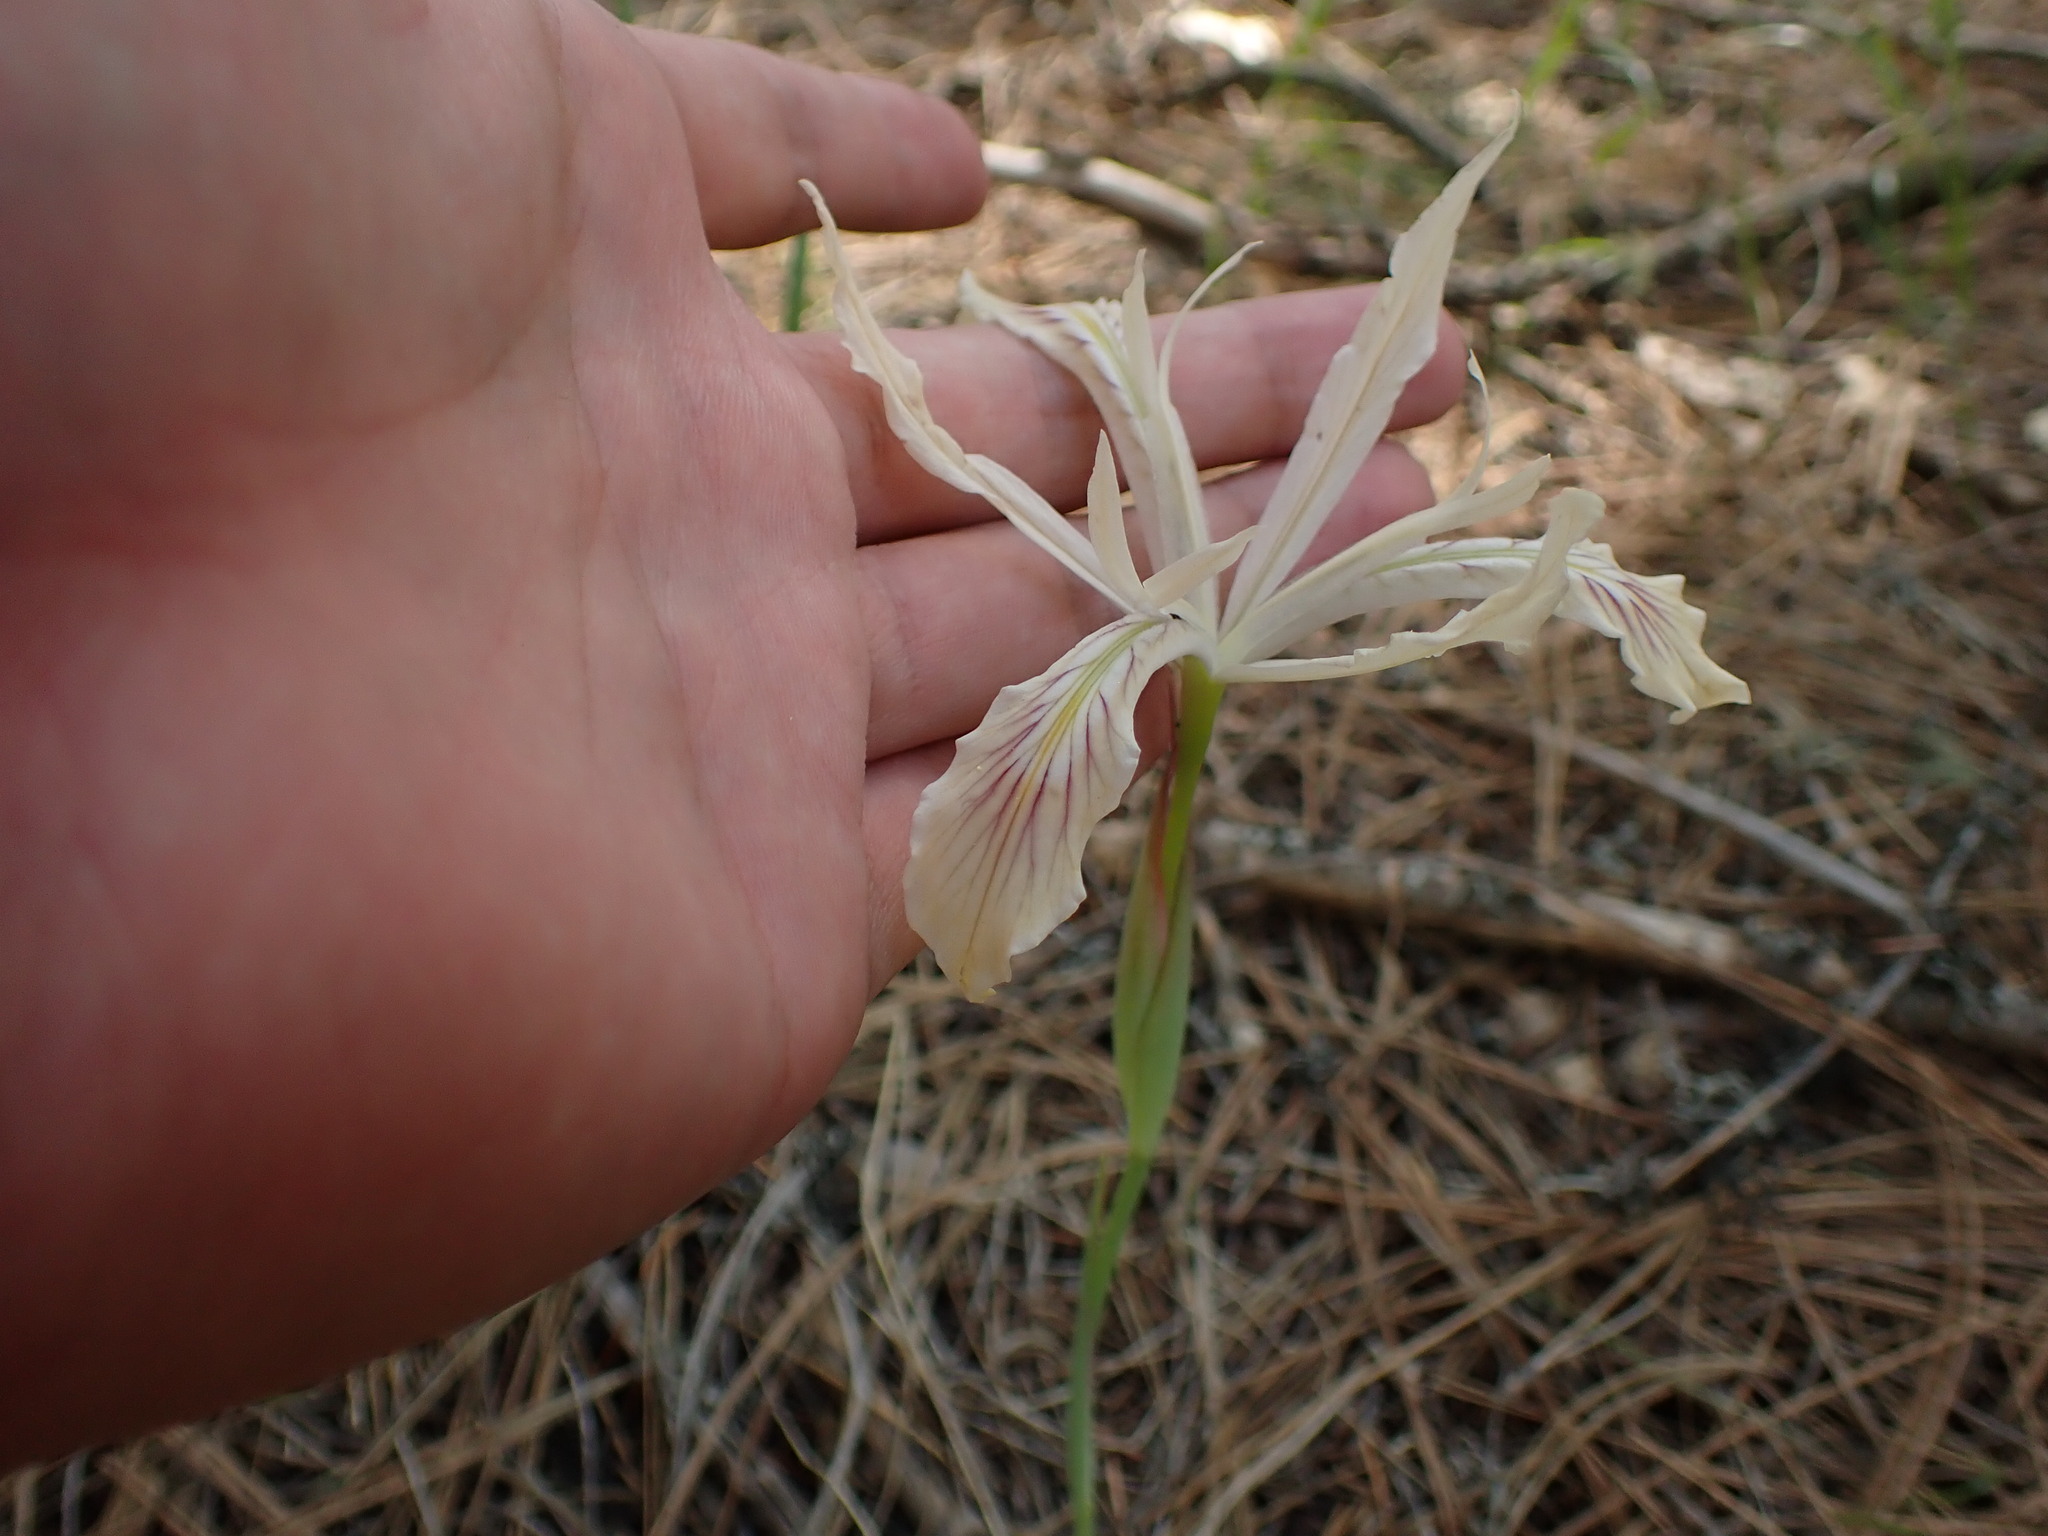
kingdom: Plantae
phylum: Tracheophyta
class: Liliopsida
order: Asparagales
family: Iridaceae
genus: Iris
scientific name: Iris tenuissima
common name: Long-tube iris
